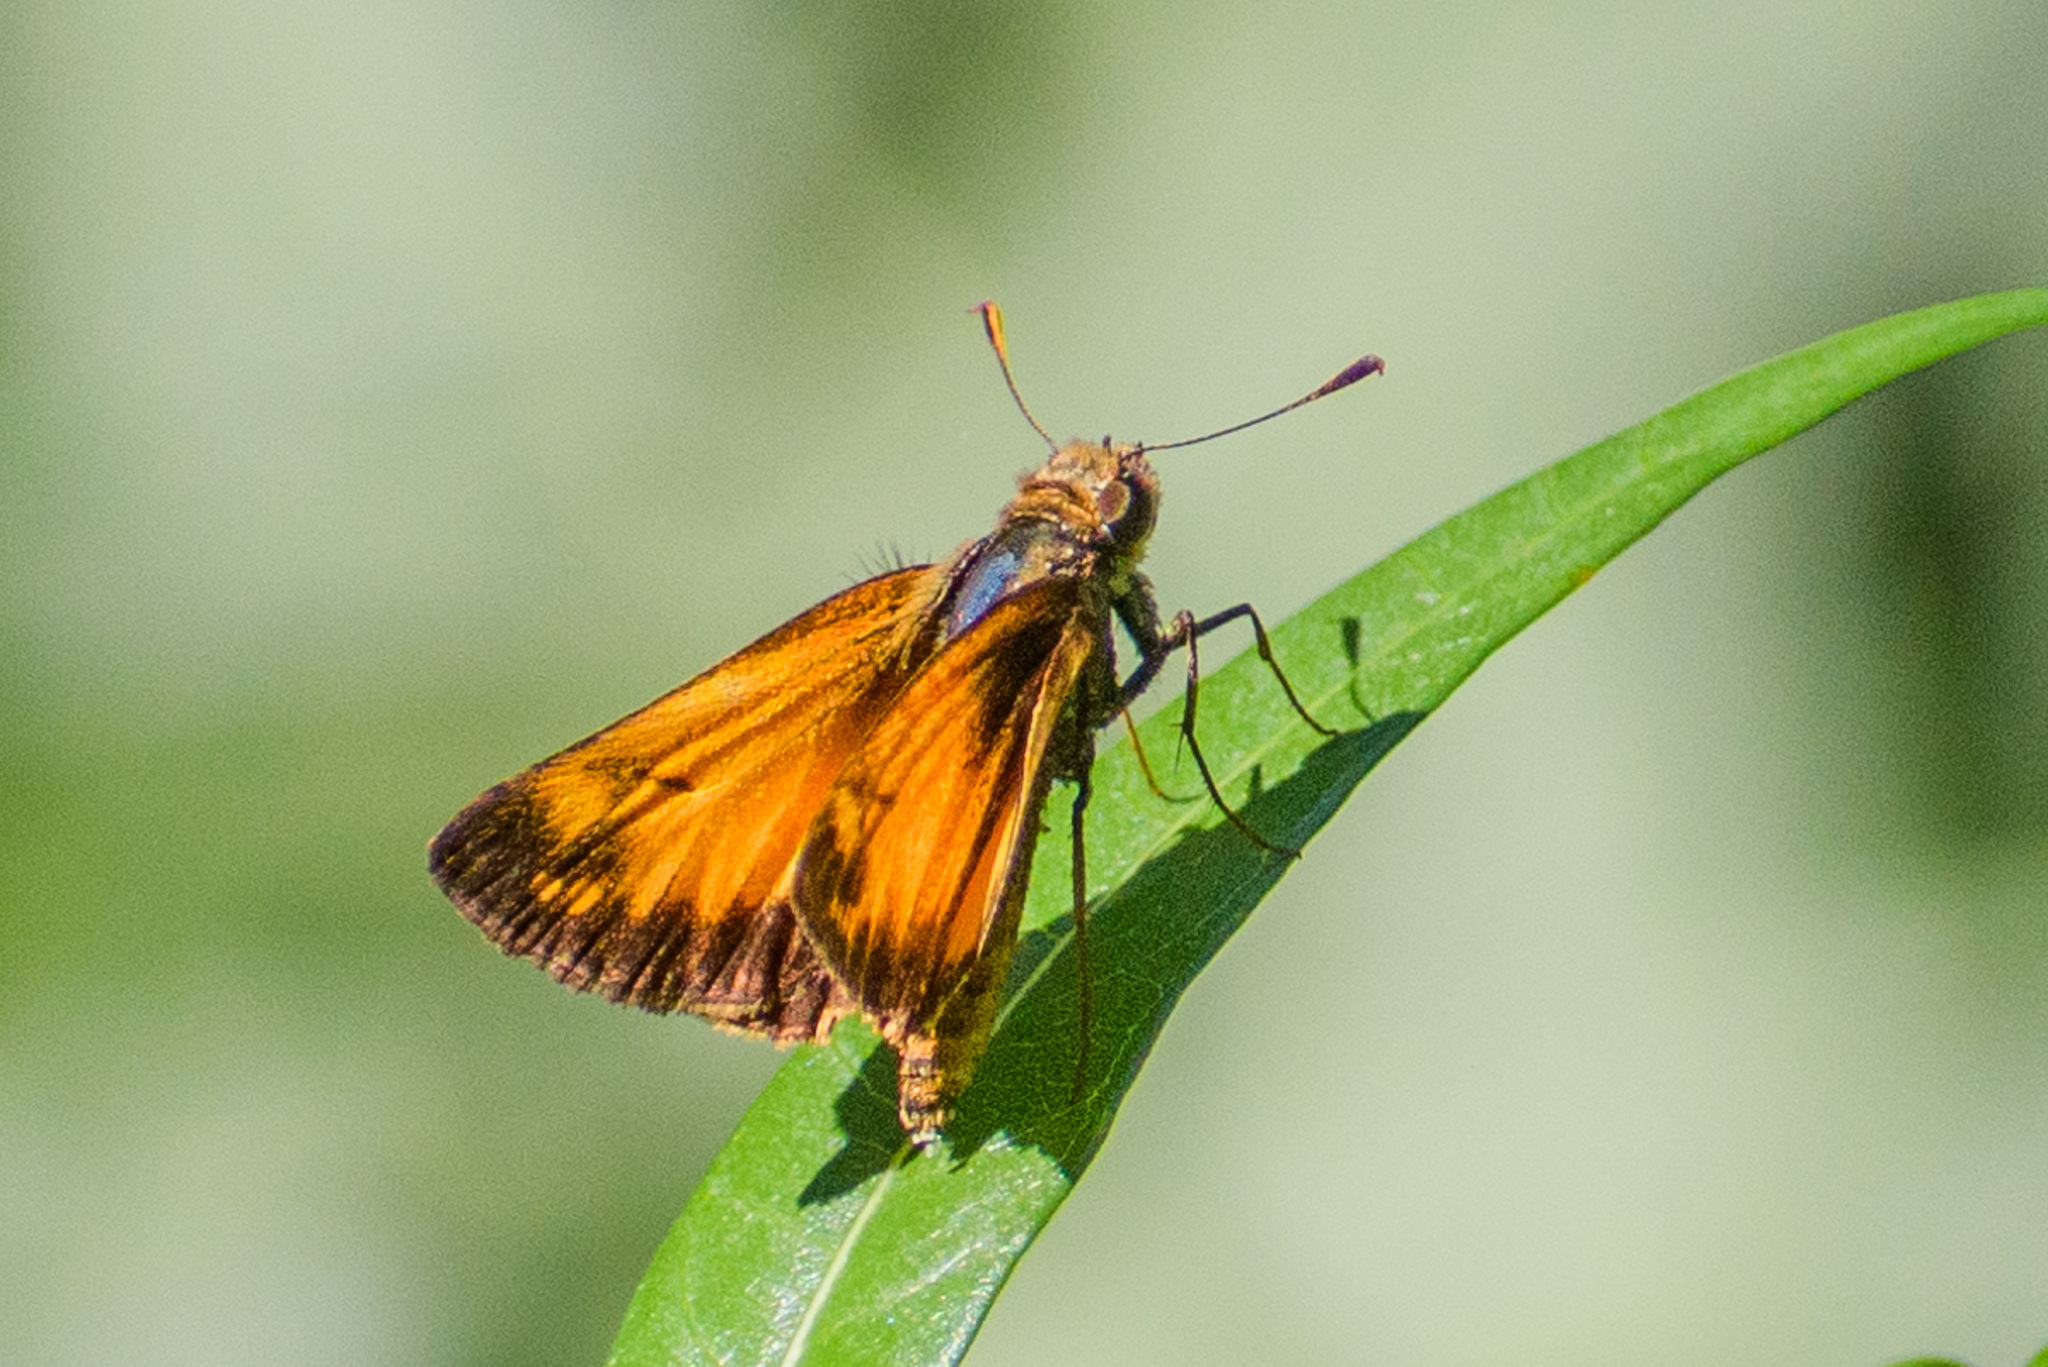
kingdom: Animalia
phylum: Arthropoda
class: Insecta
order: Lepidoptera
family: Hesperiidae
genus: Lon
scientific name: Lon zabulon
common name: Zabulon skipper
